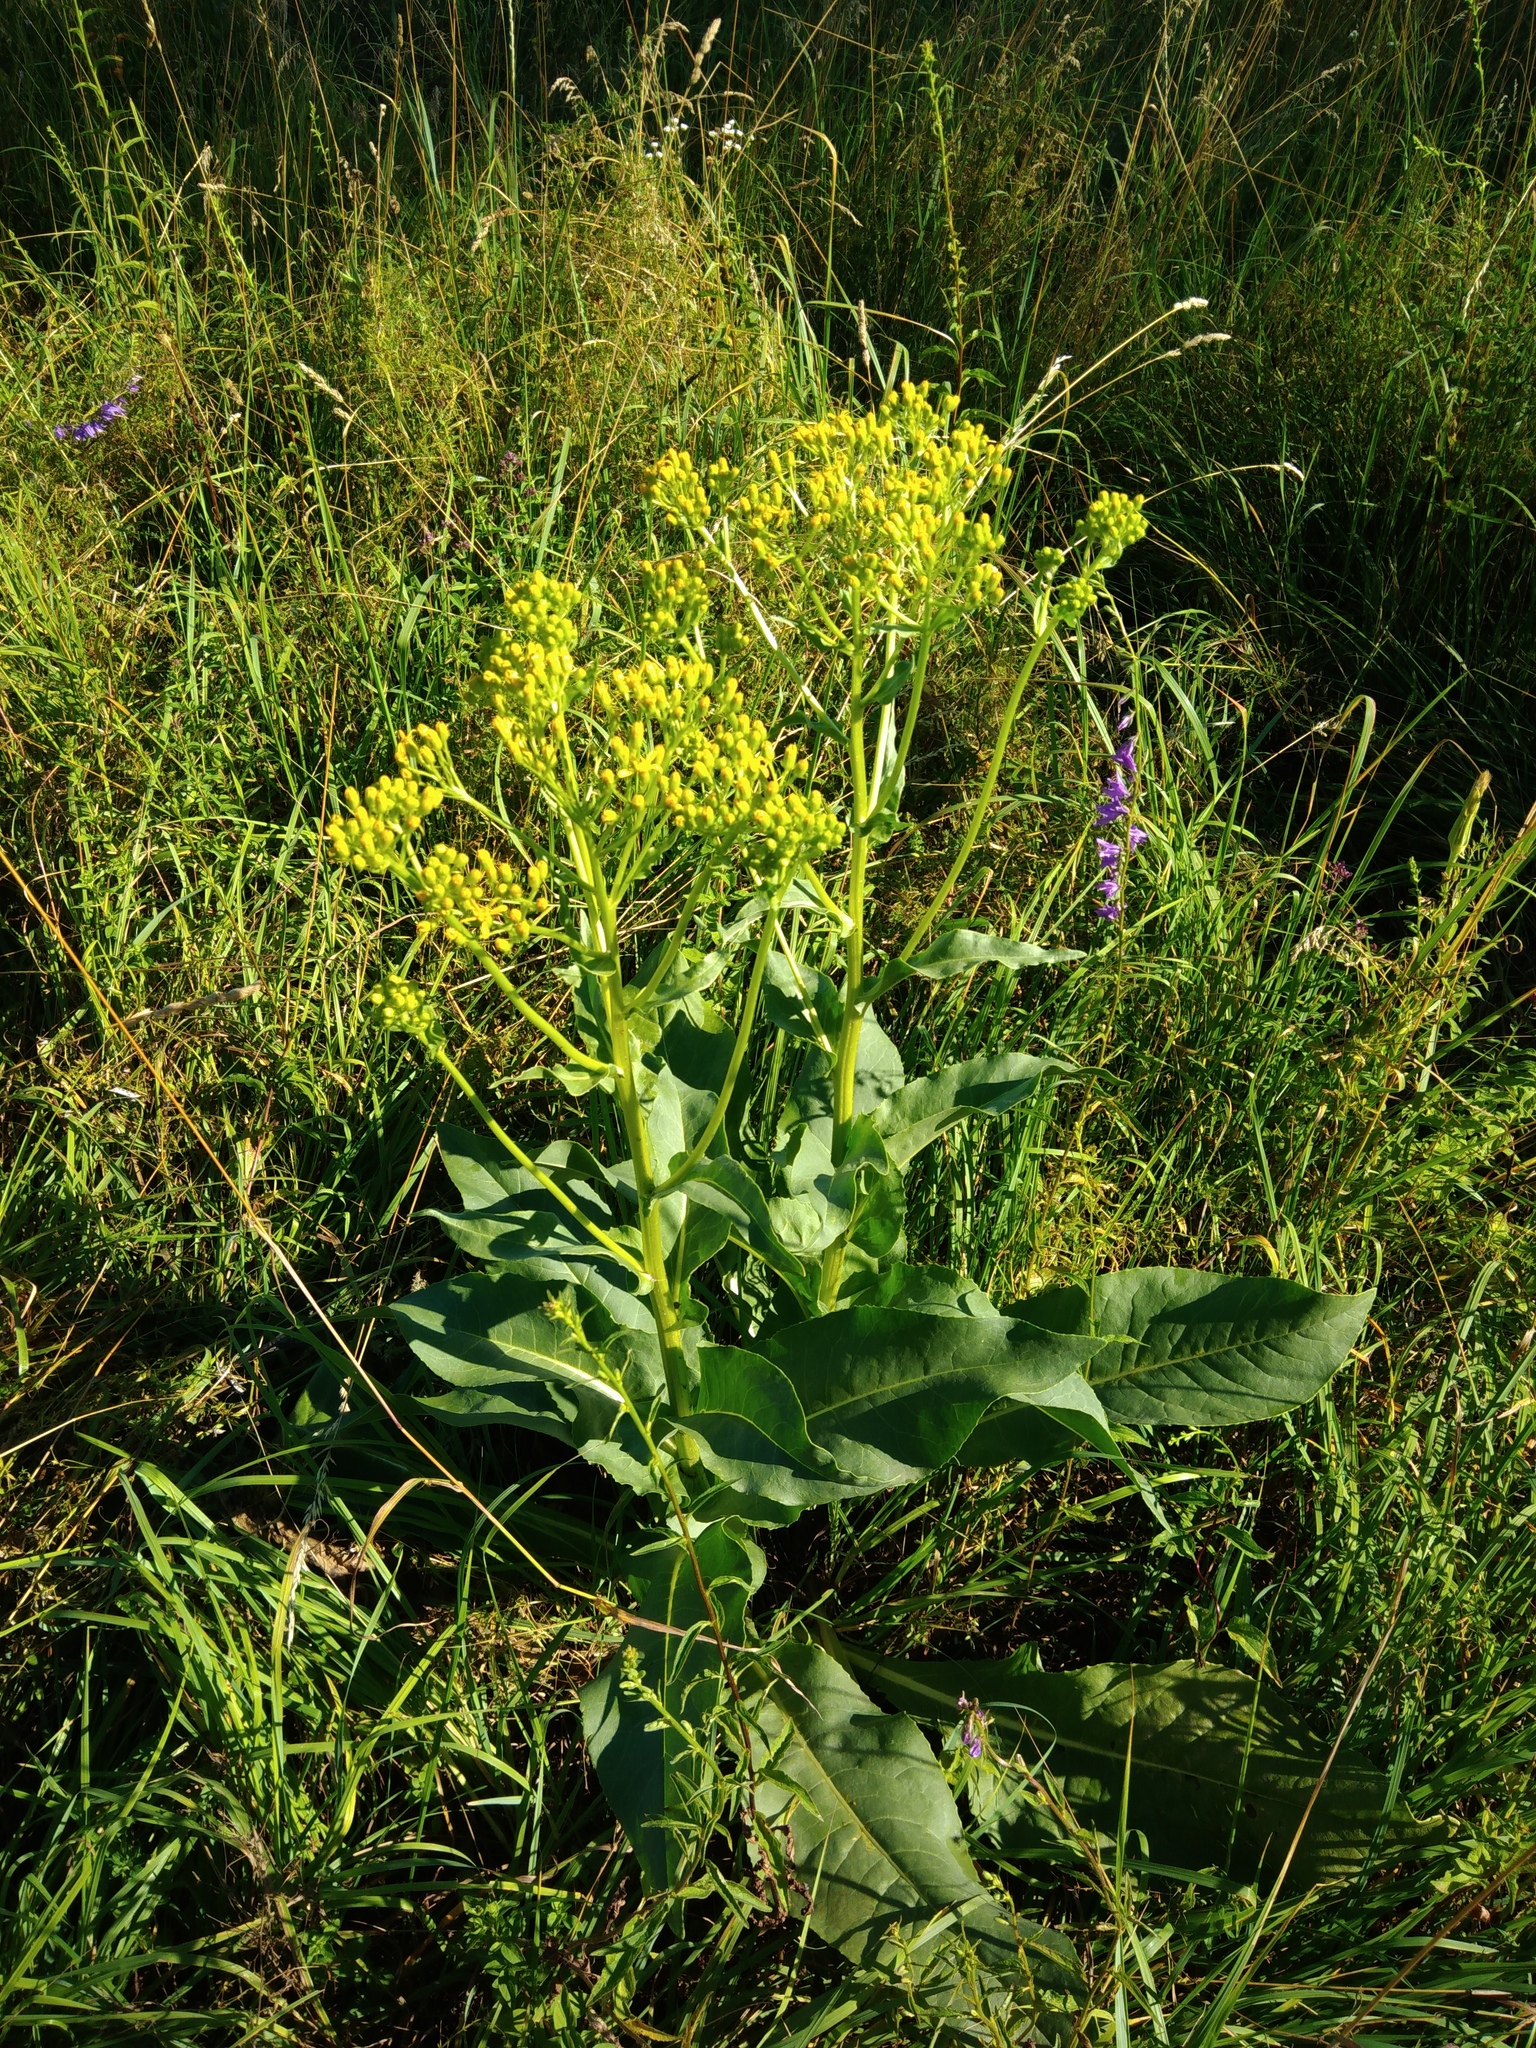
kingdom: Plantae
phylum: Tracheophyta
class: Magnoliopsida
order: Asterales
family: Asteraceae
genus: Senecio
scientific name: Senecio doria
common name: Golden ragwort
